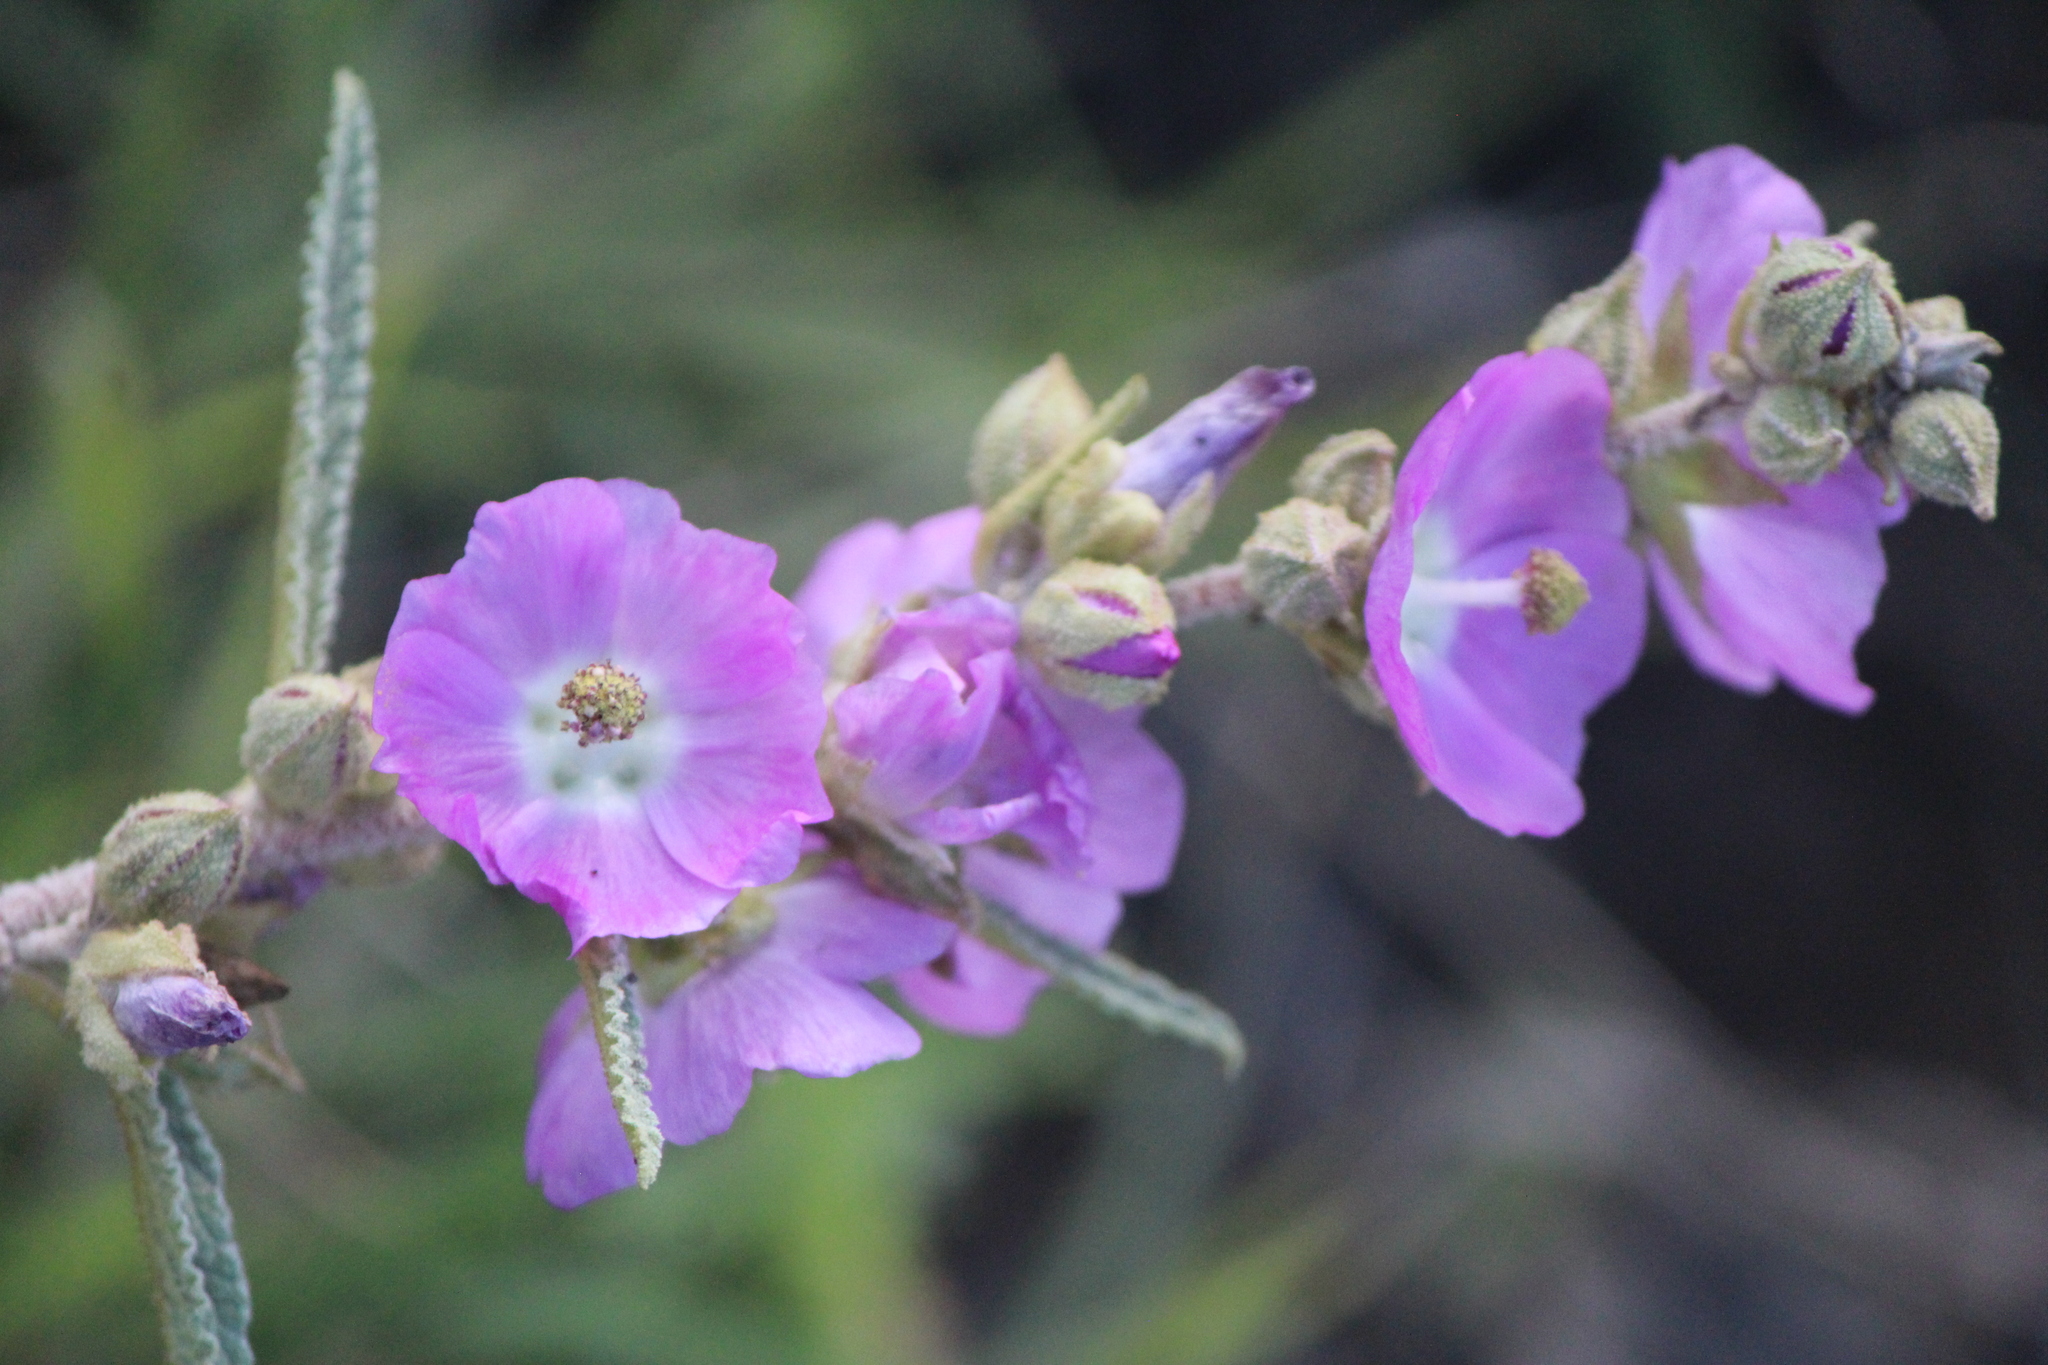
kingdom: Plantae
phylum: Tracheophyta
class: Magnoliopsida
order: Malvales
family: Malvaceae
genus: Sphaeralcea
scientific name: Sphaeralcea angustifolia
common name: Copper globe-mallow
